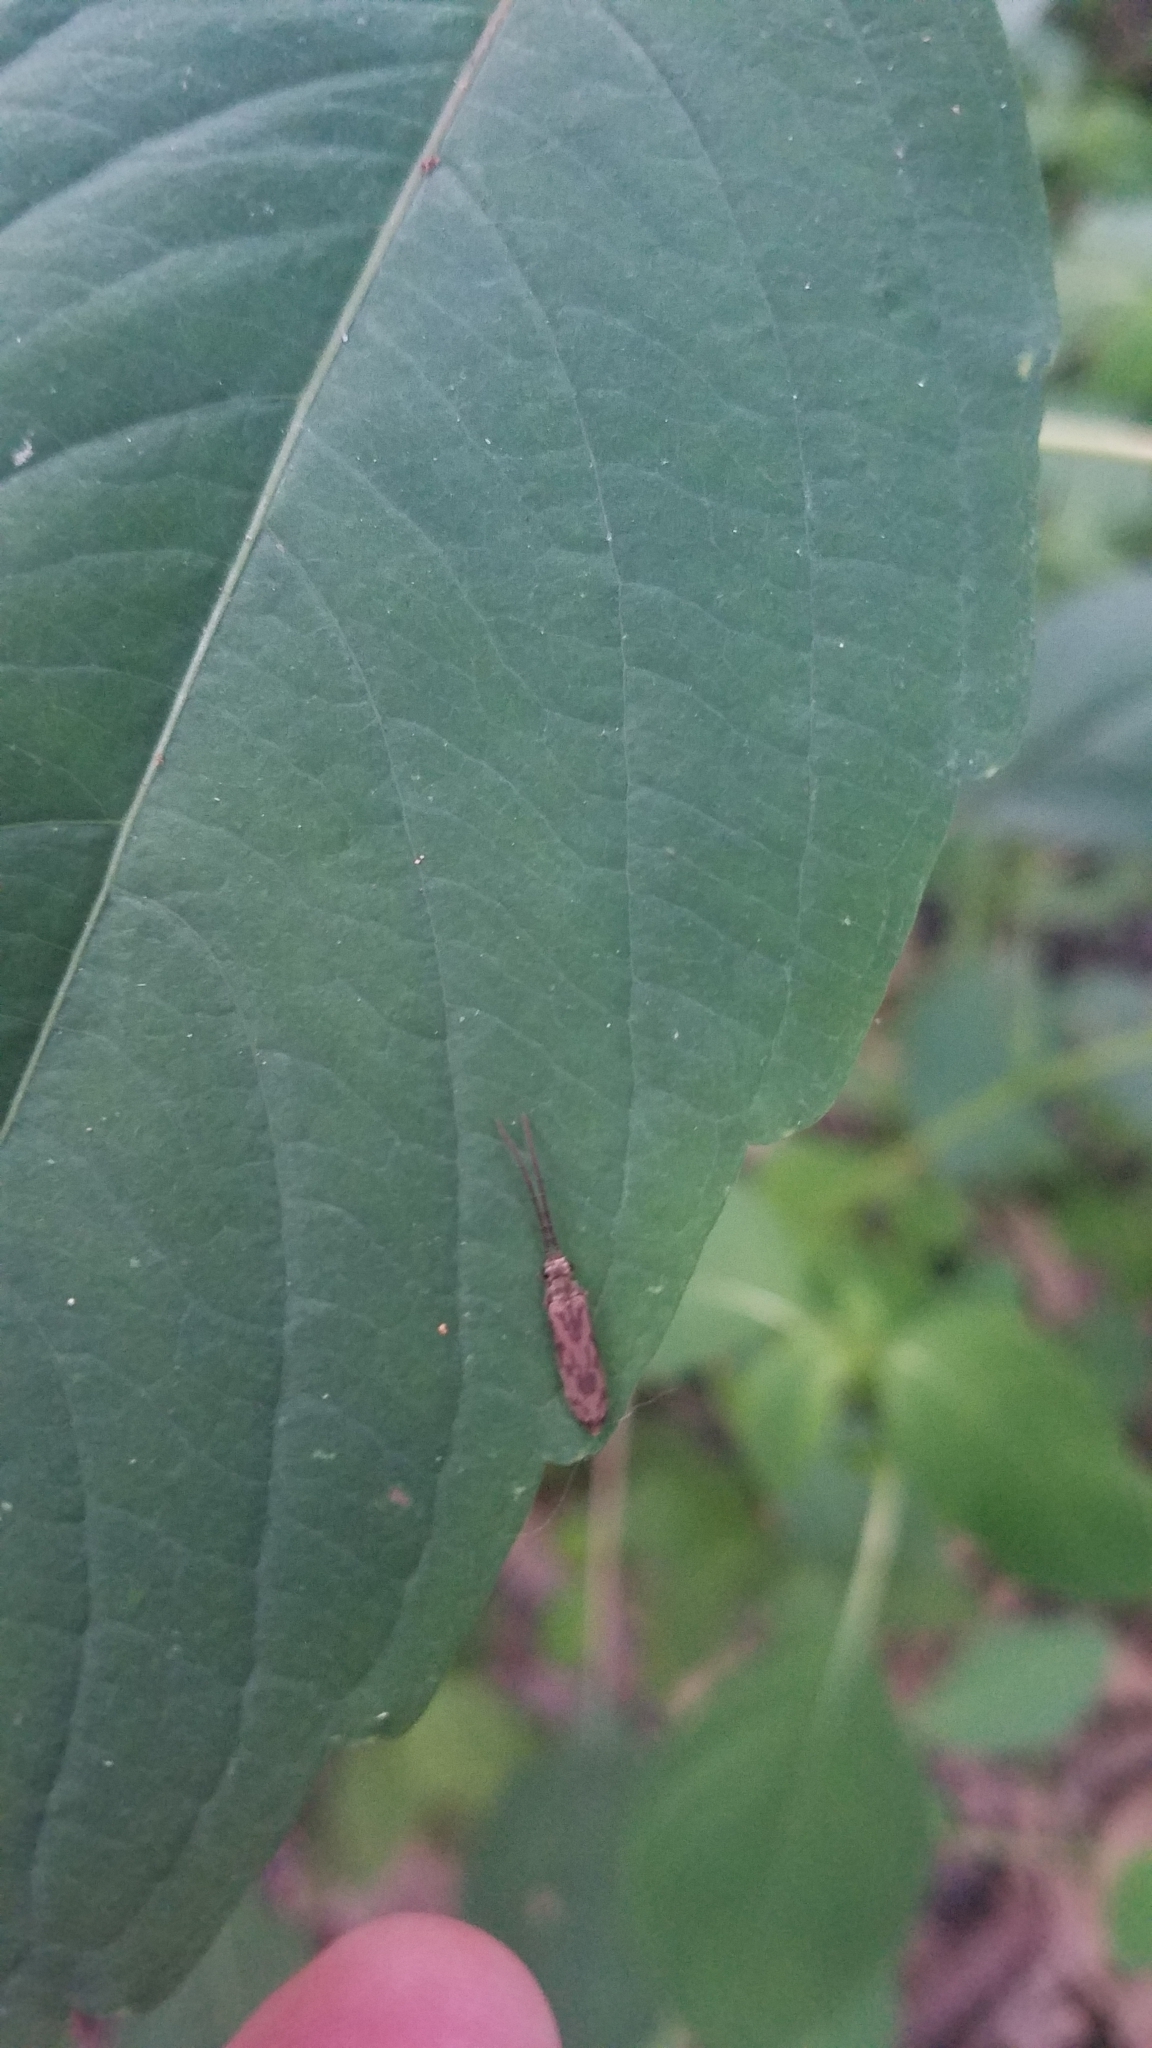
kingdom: Animalia
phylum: Arthropoda
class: Insecta
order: Coleoptera
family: Cupedidae
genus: Tenomerga
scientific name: Tenomerga cinerea
